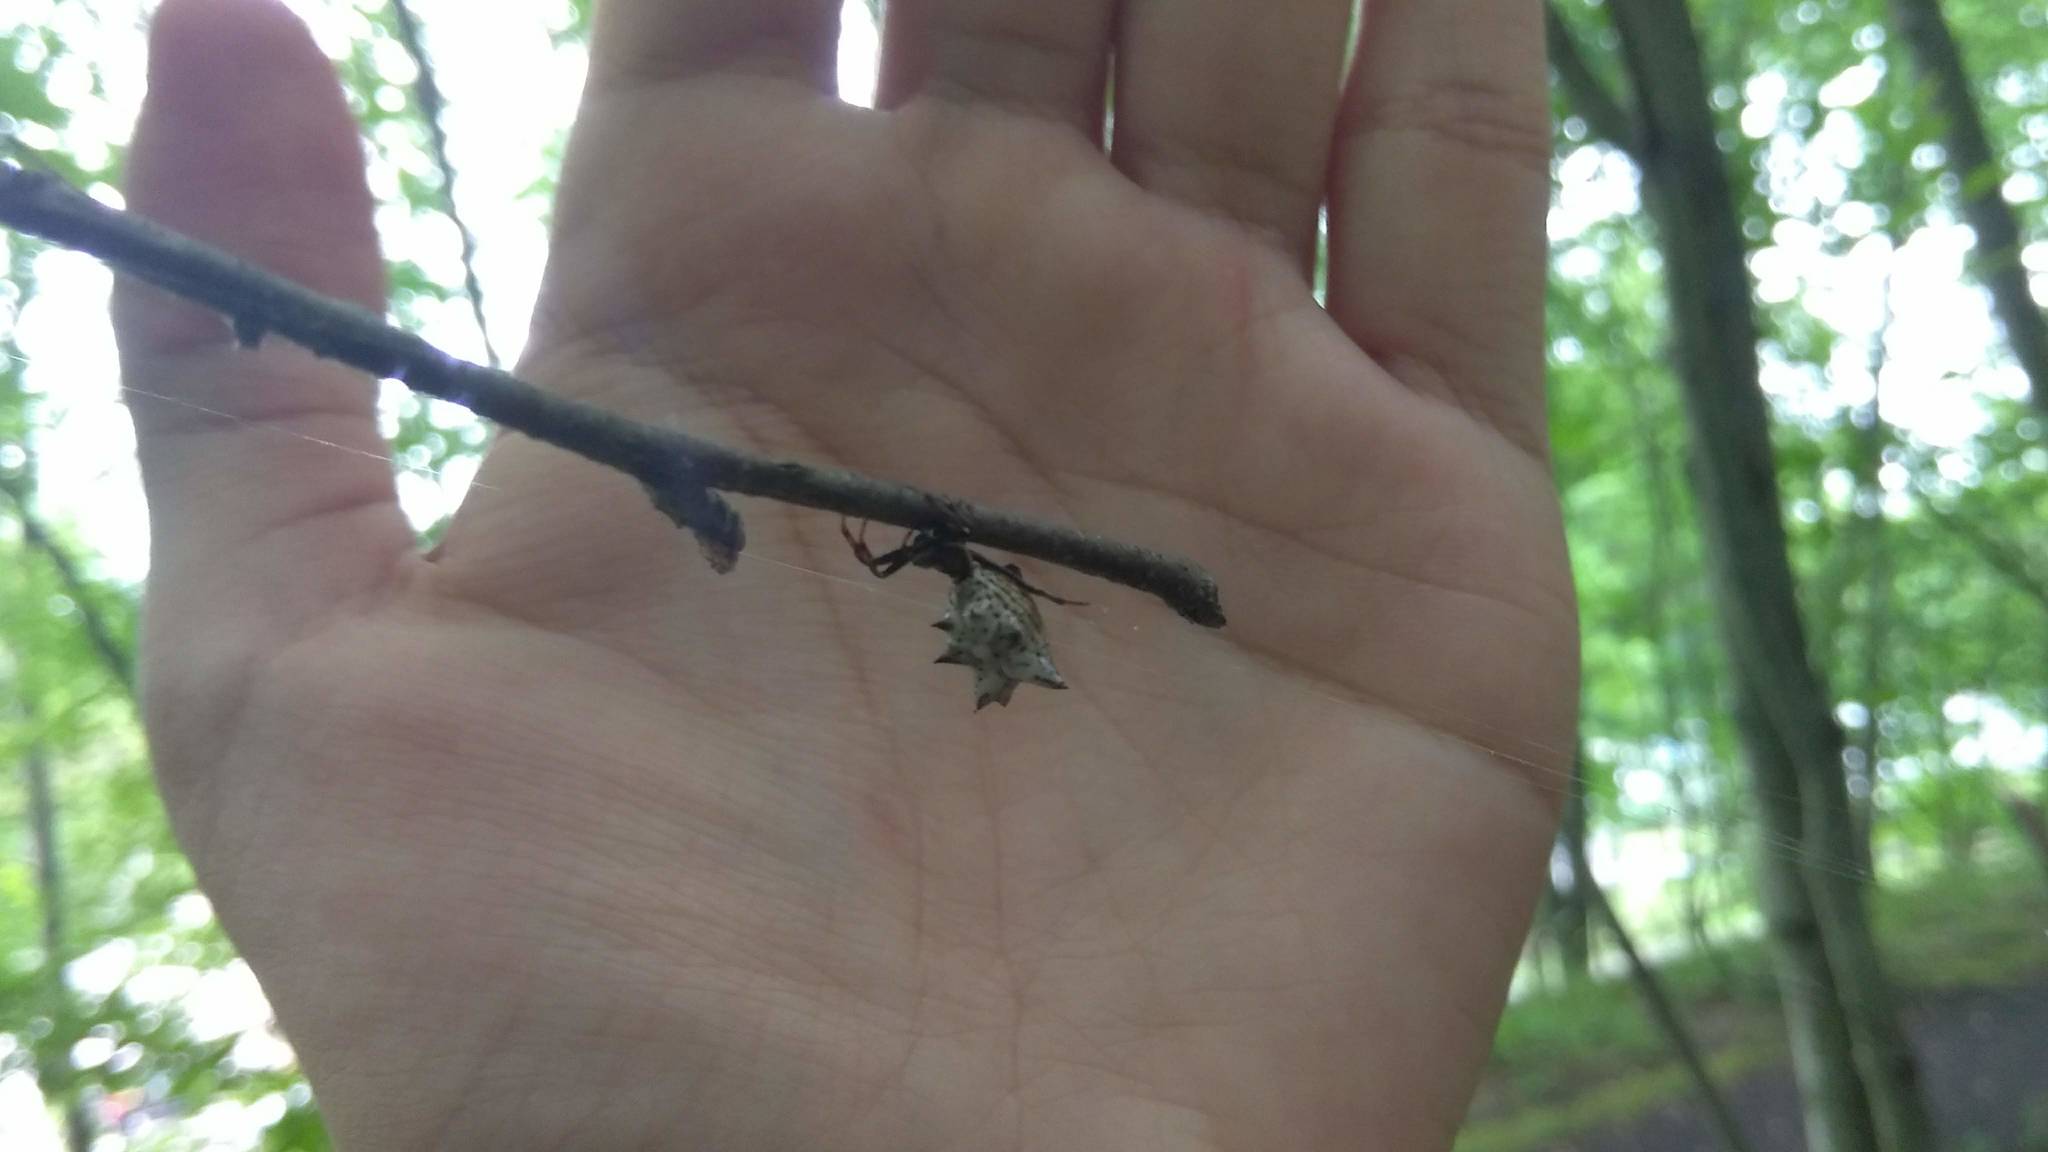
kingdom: Animalia
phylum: Arthropoda
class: Arachnida
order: Araneae
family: Araneidae
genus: Micrathena
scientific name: Micrathena gracilis
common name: Orb weavers
